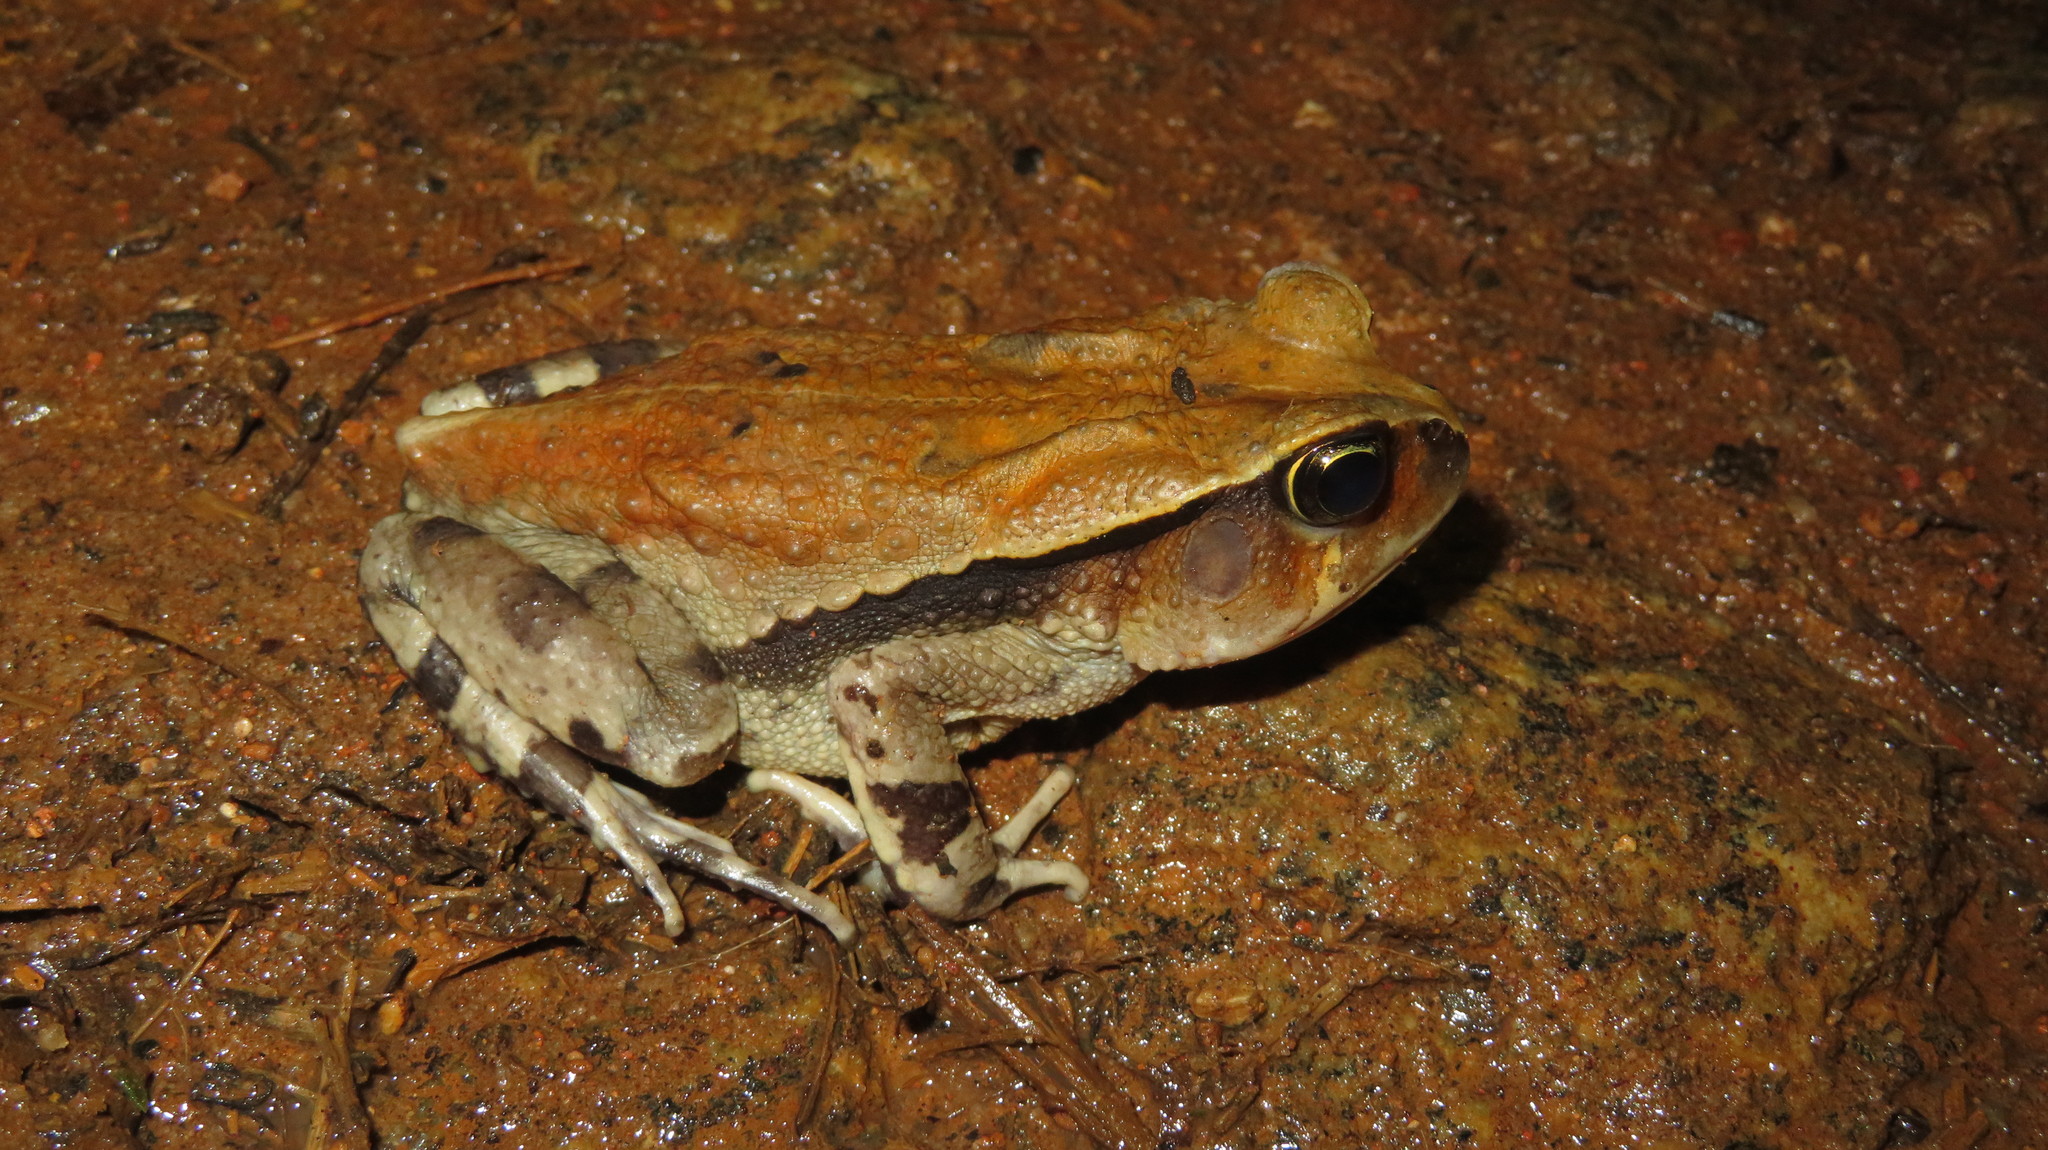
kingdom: Animalia
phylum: Chordata
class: Amphibia
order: Anura
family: Bufonidae
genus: Sclerophrys
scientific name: Sclerophrys brauni
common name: Braun's toad
